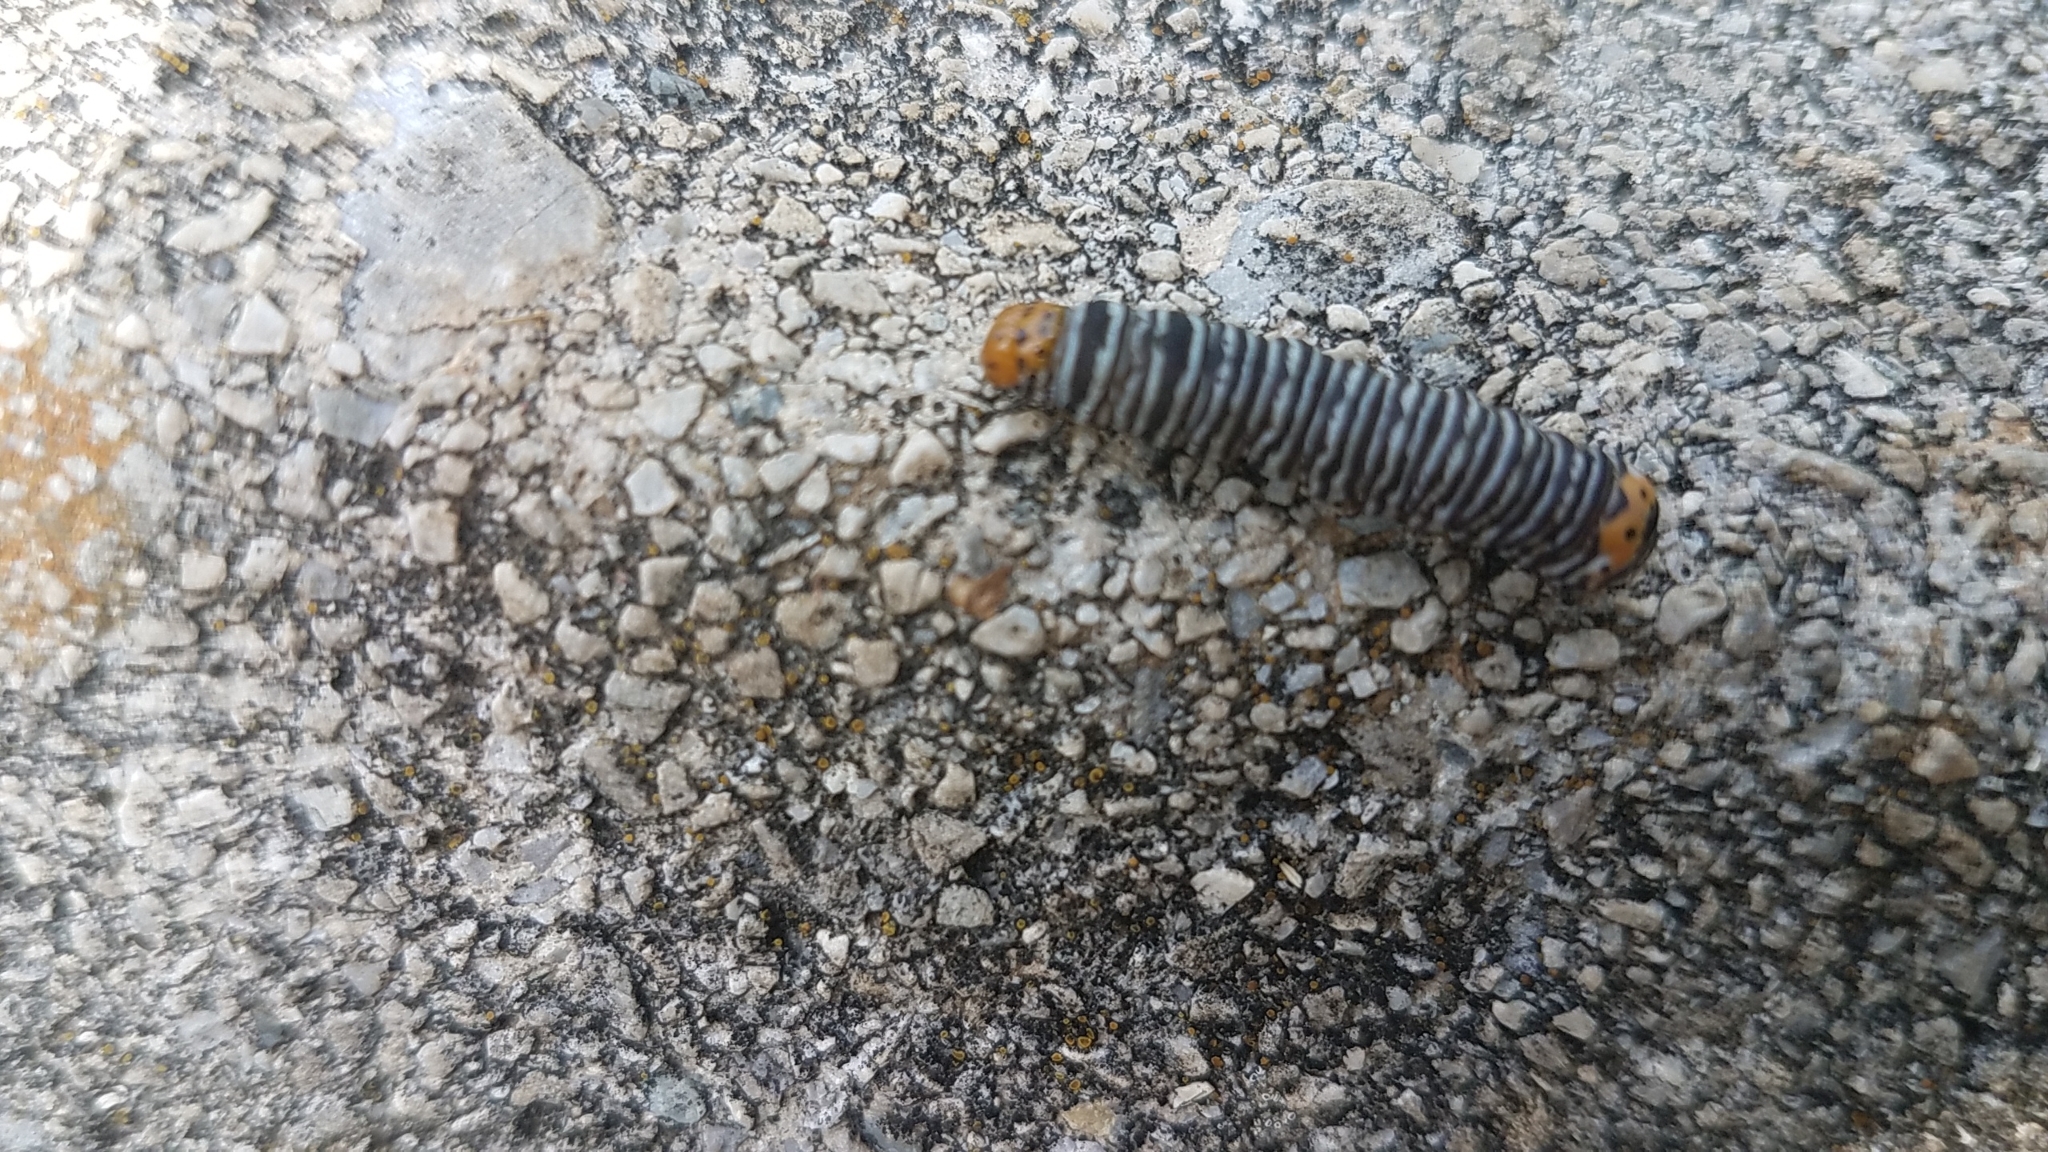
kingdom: Animalia
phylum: Arthropoda
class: Insecta
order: Lepidoptera
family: Noctuidae
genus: Psychomorpha
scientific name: Psychomorpha epimenis
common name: Grapevine epimenis moth
